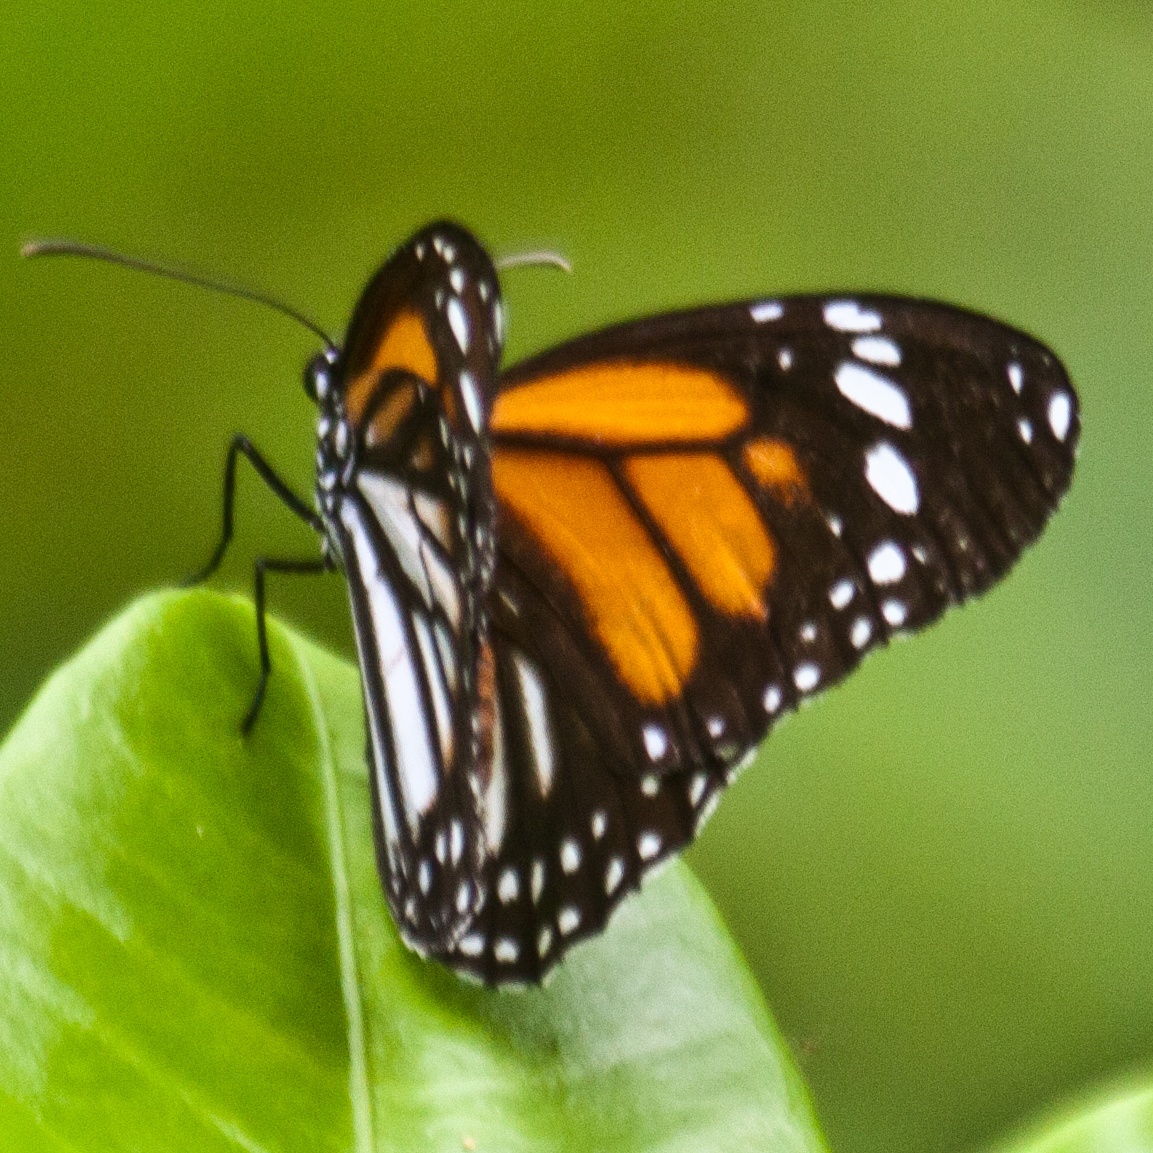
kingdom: Animalia
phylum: Arthropoda
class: Insecta
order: Lepidoptera
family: Nymphalidae
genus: Danaus
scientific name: Danaus melanippus
